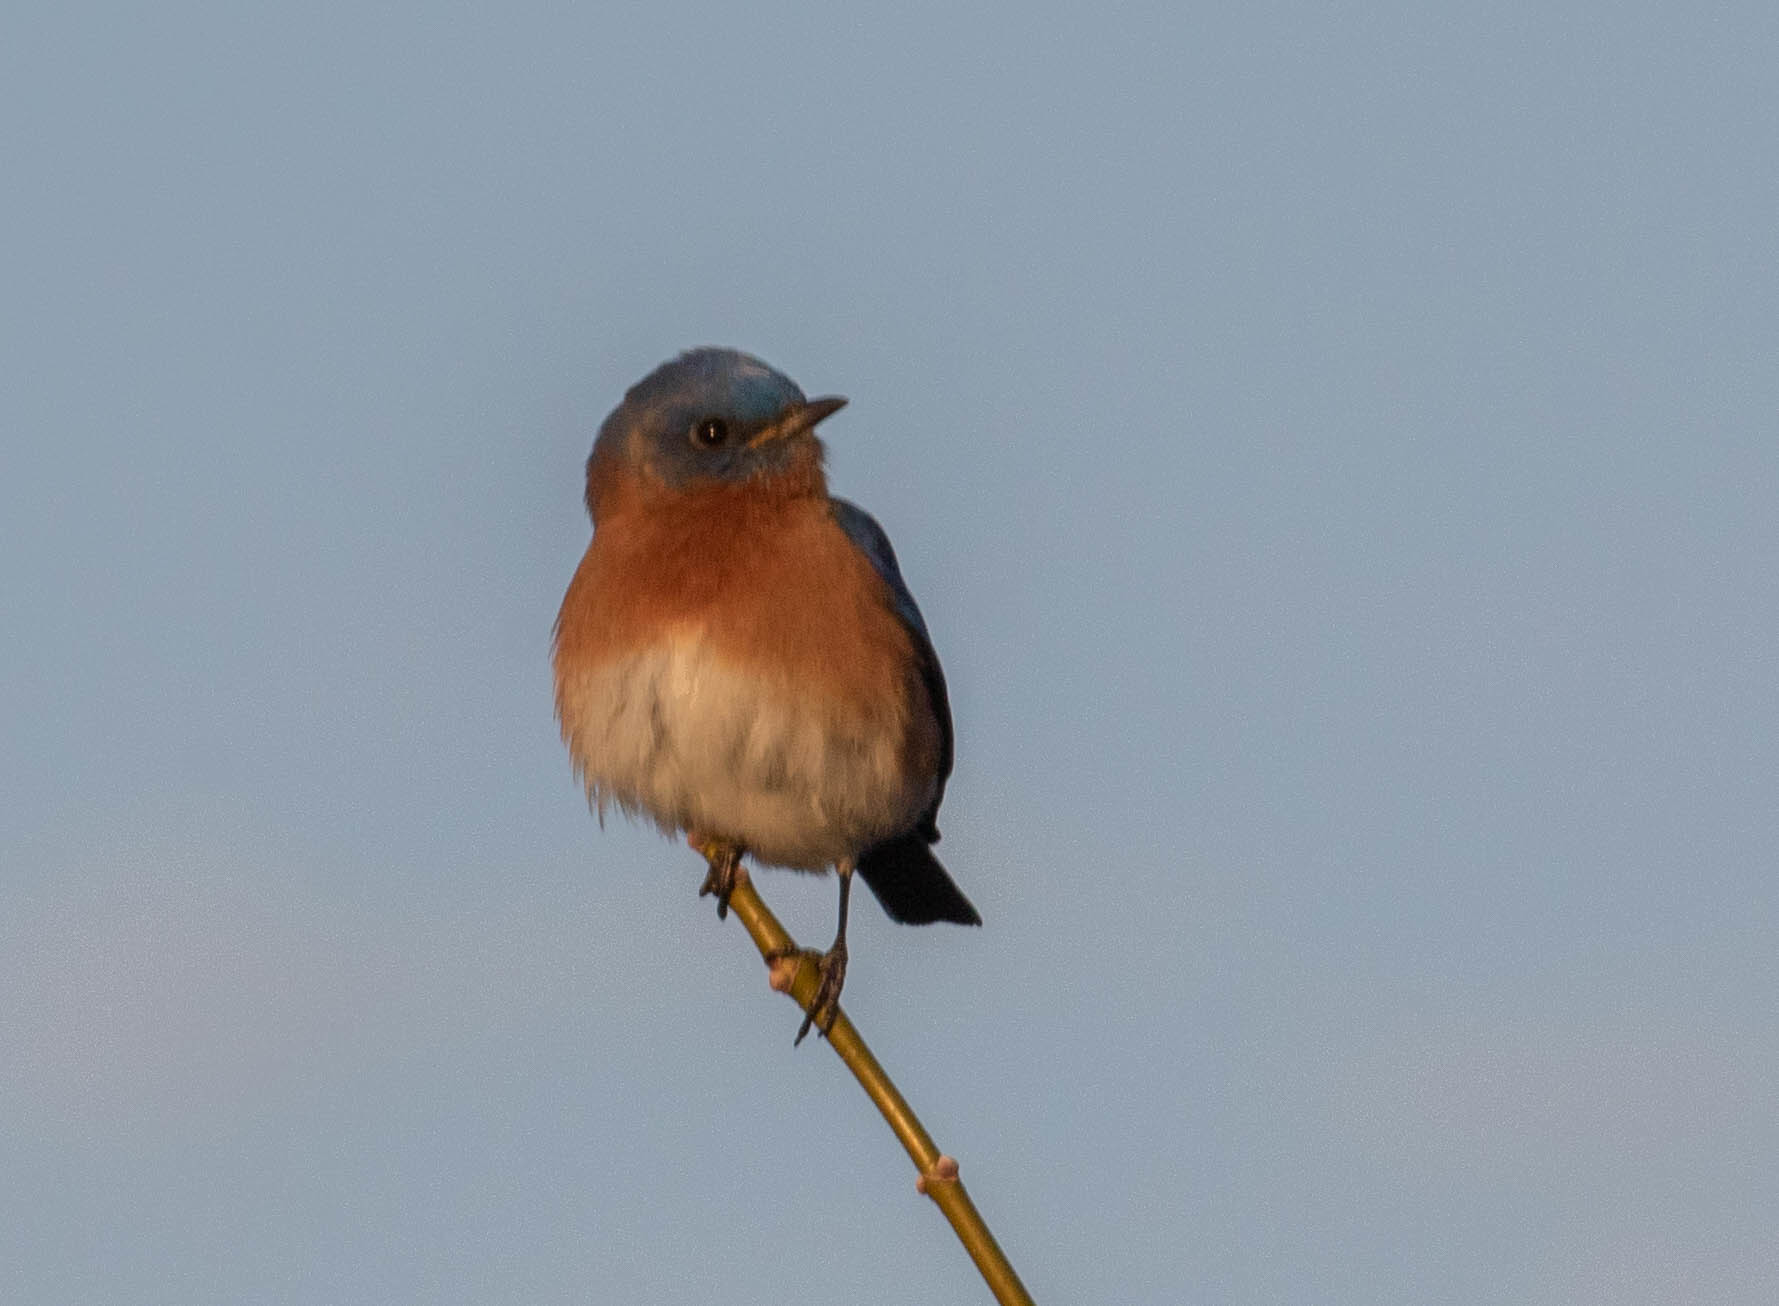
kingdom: Animalia
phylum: Chordata
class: Aves
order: Passeriformes
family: Turdidae
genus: Sialia
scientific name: Sialia sialis
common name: Eastern bluebird
